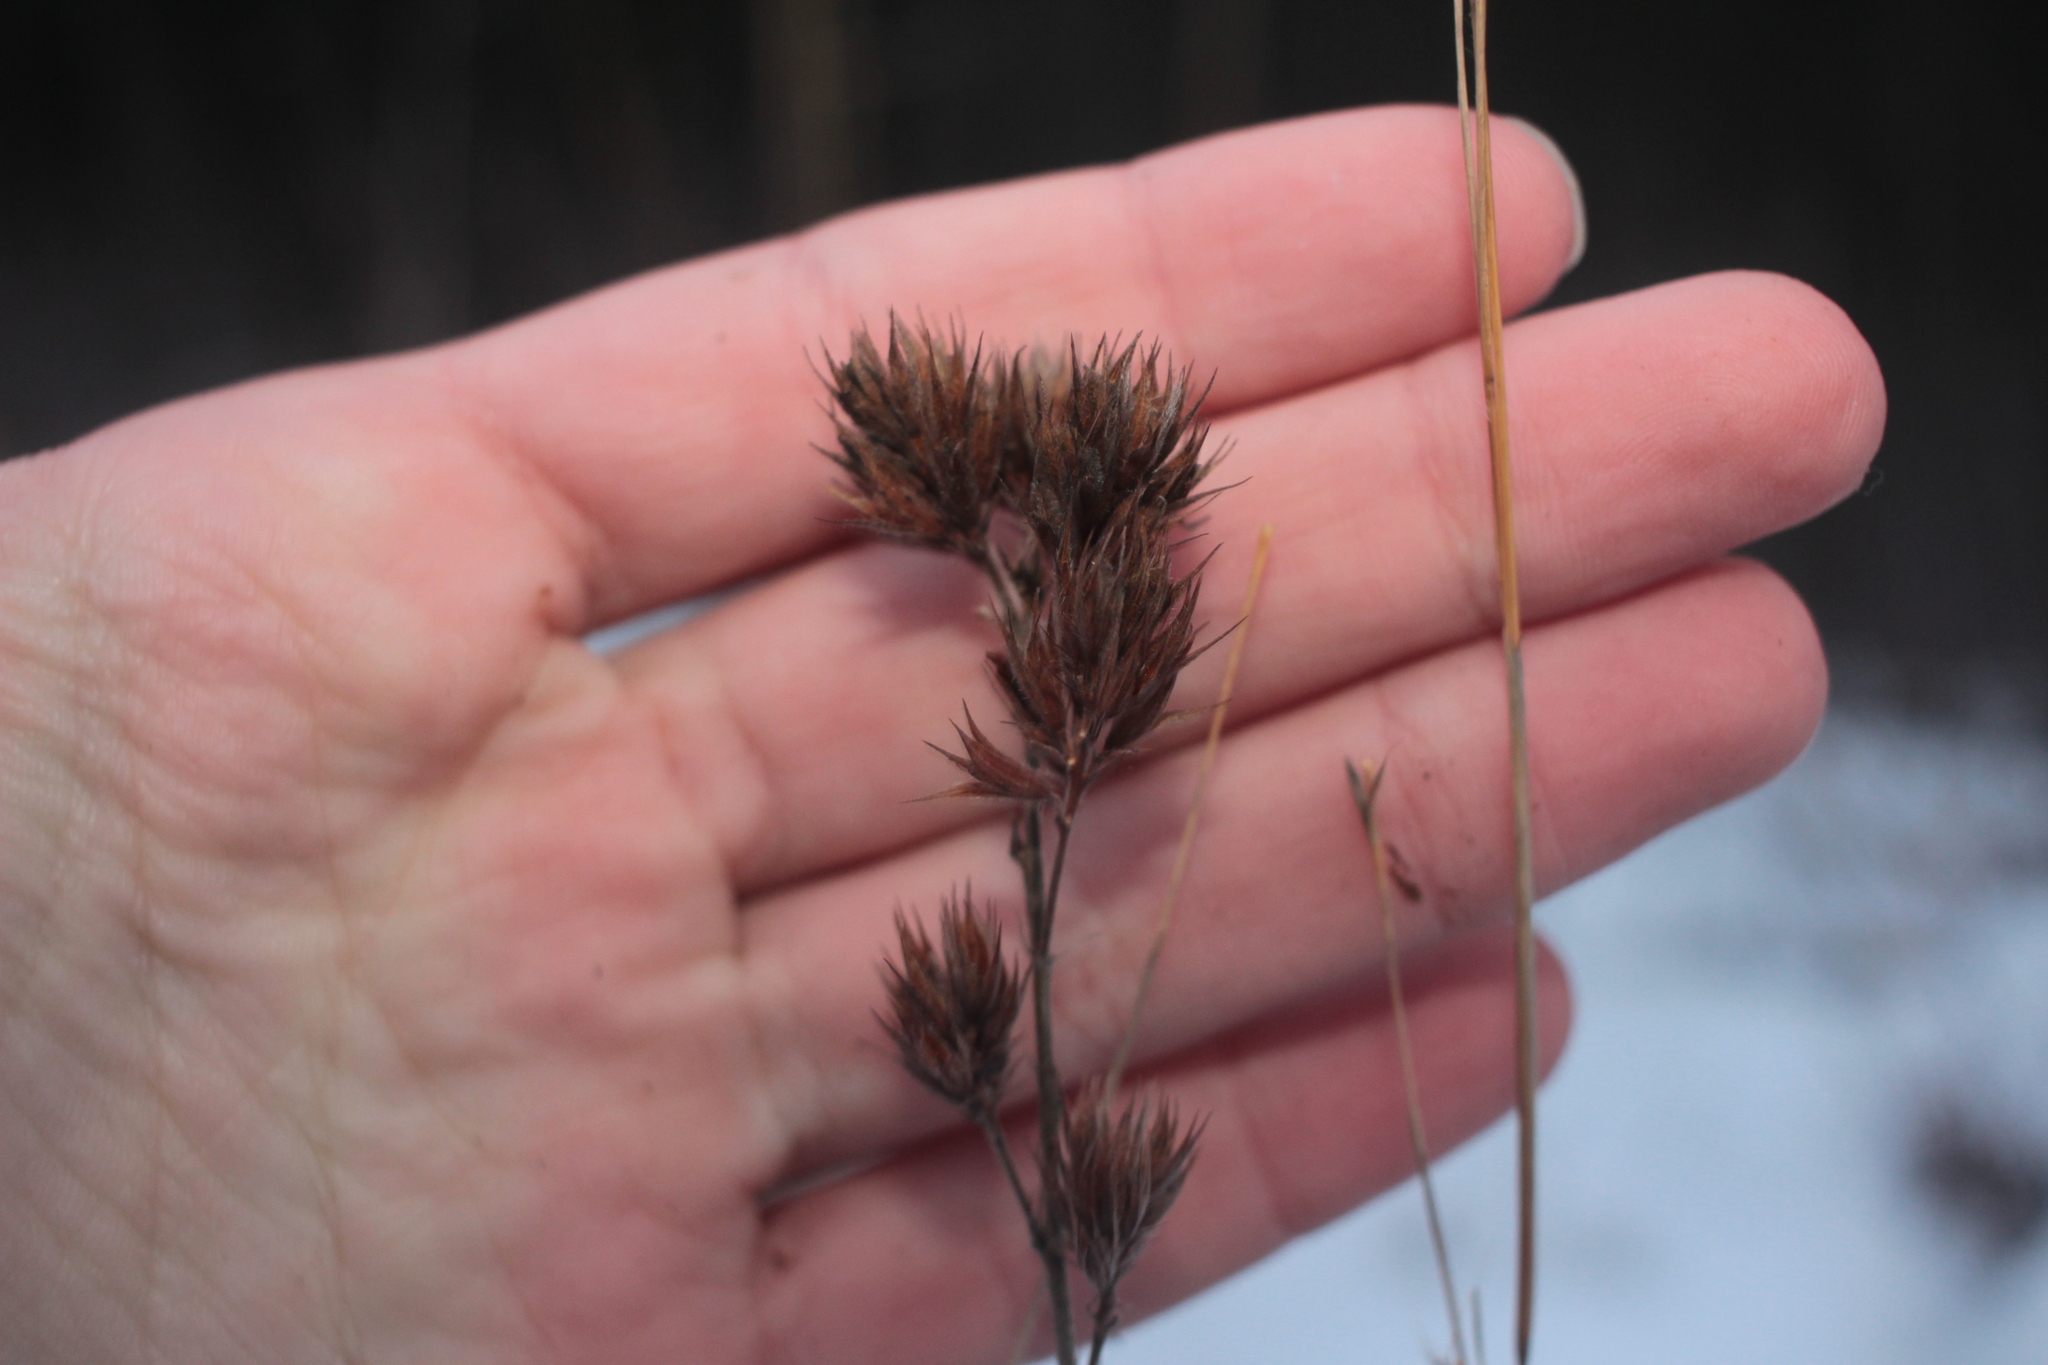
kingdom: Plantae
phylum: Tracheophyta
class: Magnoliopsida
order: Fabales
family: Fabaceae
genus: Lespedeza
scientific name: Lespedeza capitata
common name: Dusty clover
